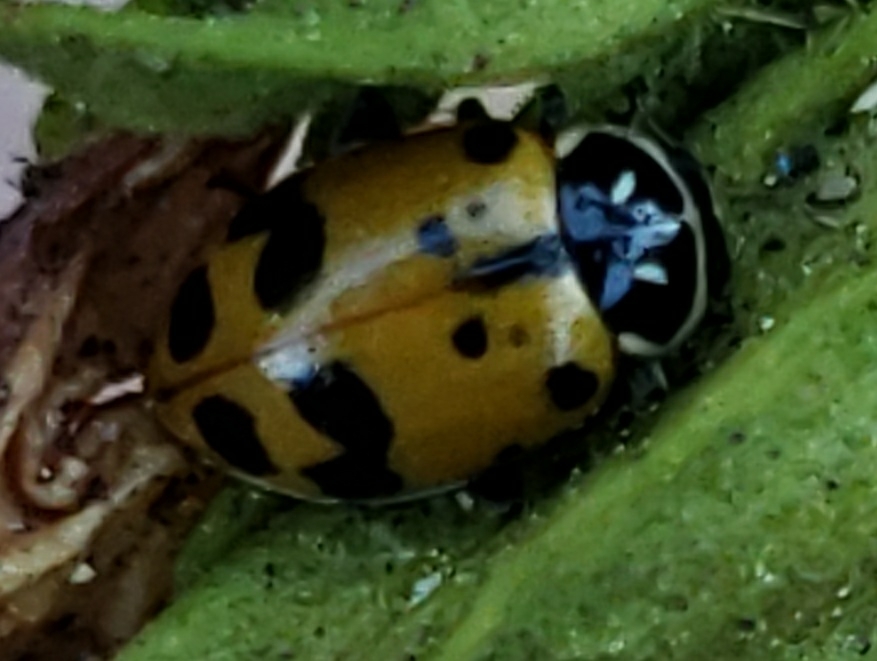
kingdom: Animalia
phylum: Arthropoda
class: Insecta
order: Coleoptera
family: Coccinellidae
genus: Hippodamia
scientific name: Hippodamia convergens
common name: Convergent lady beetle
